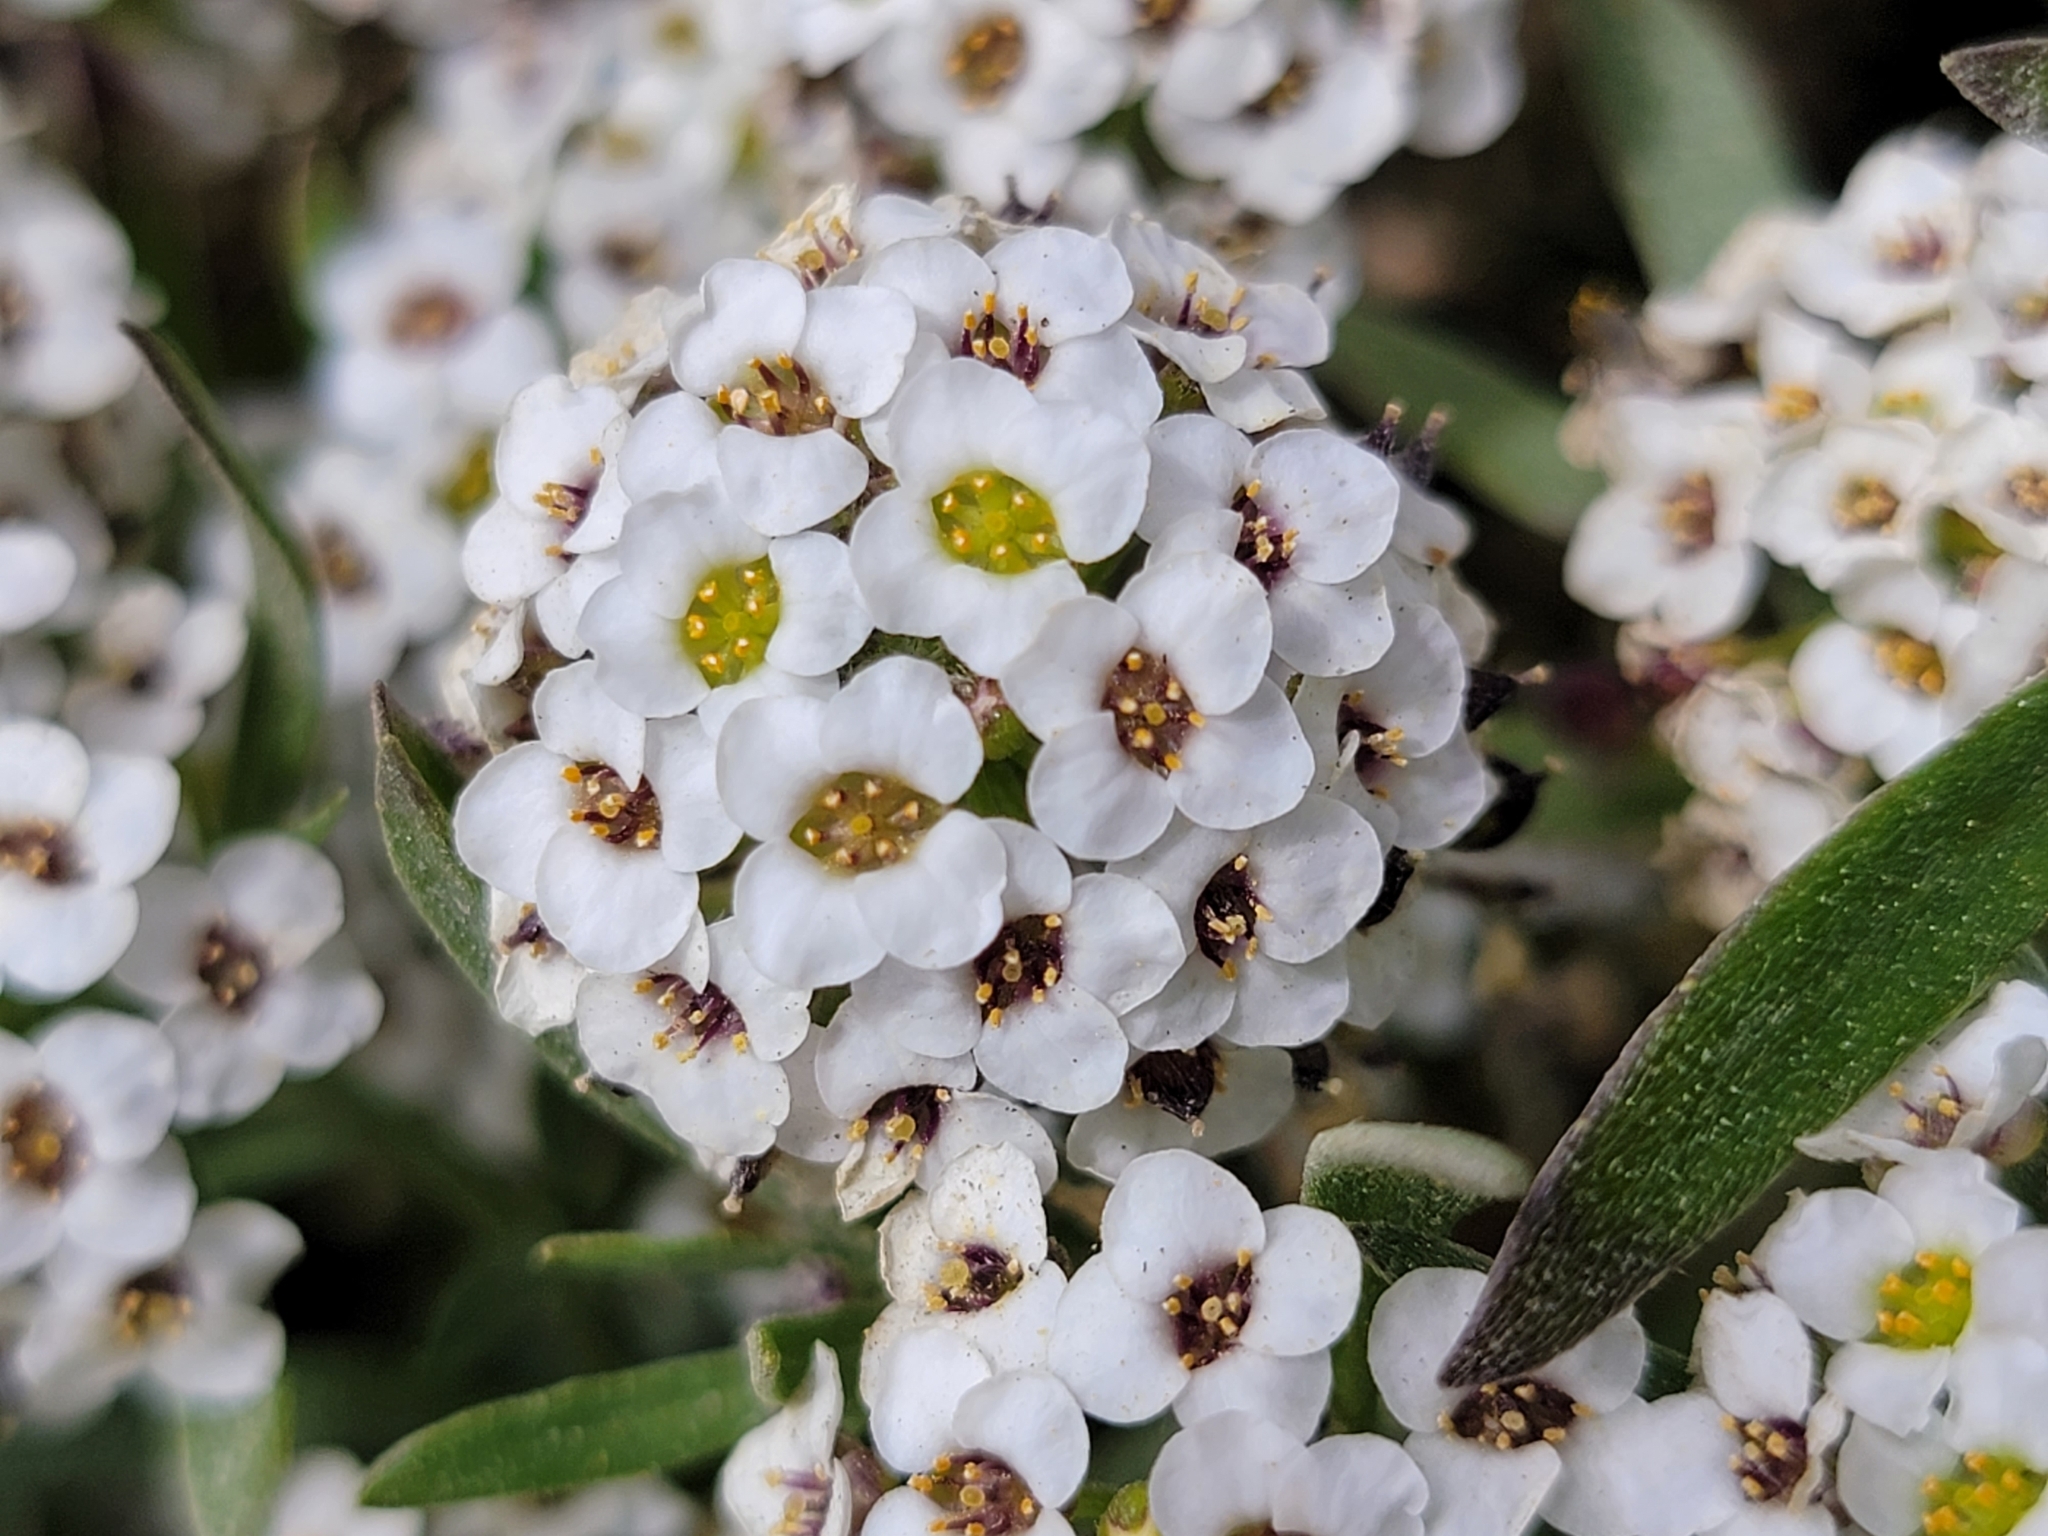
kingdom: Plantae
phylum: Tracheophyta
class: Magnoliopsida
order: Brassicales
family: Brassicaceae
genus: Lobularia
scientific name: Lobularia maritima
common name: Sweet alison
